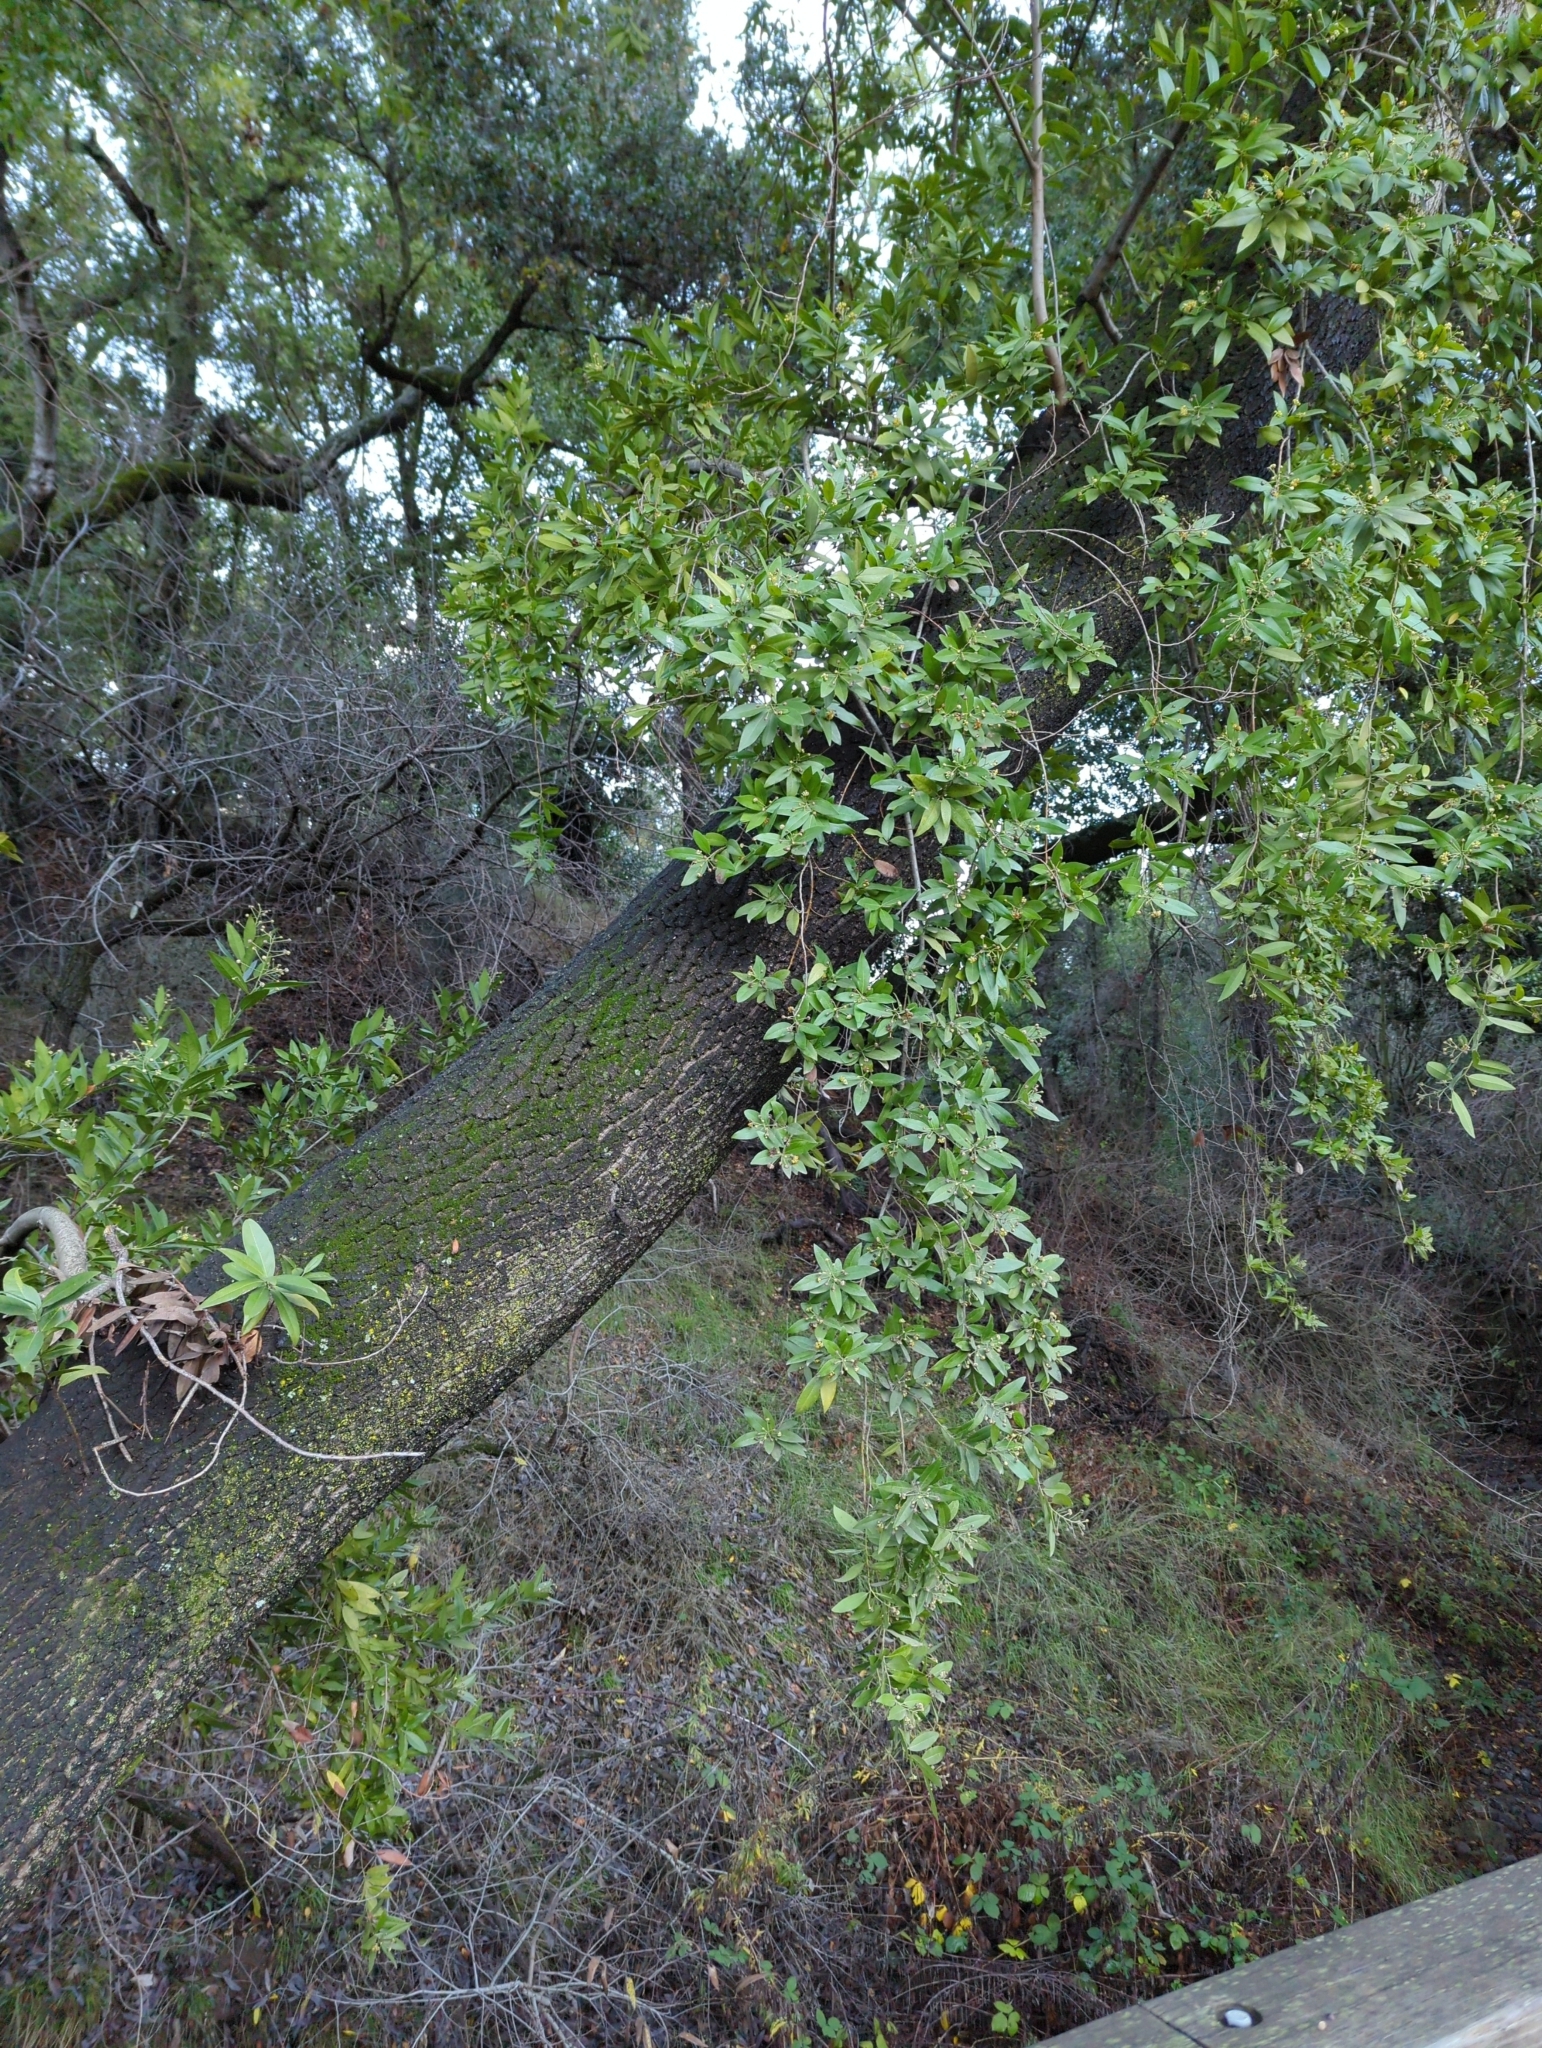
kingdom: Plantae
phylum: Tracheophyta
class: Magnoliopsida
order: Laurales
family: Lauraceae
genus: Umbellularia
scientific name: Umbellularia californica
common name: California bay
